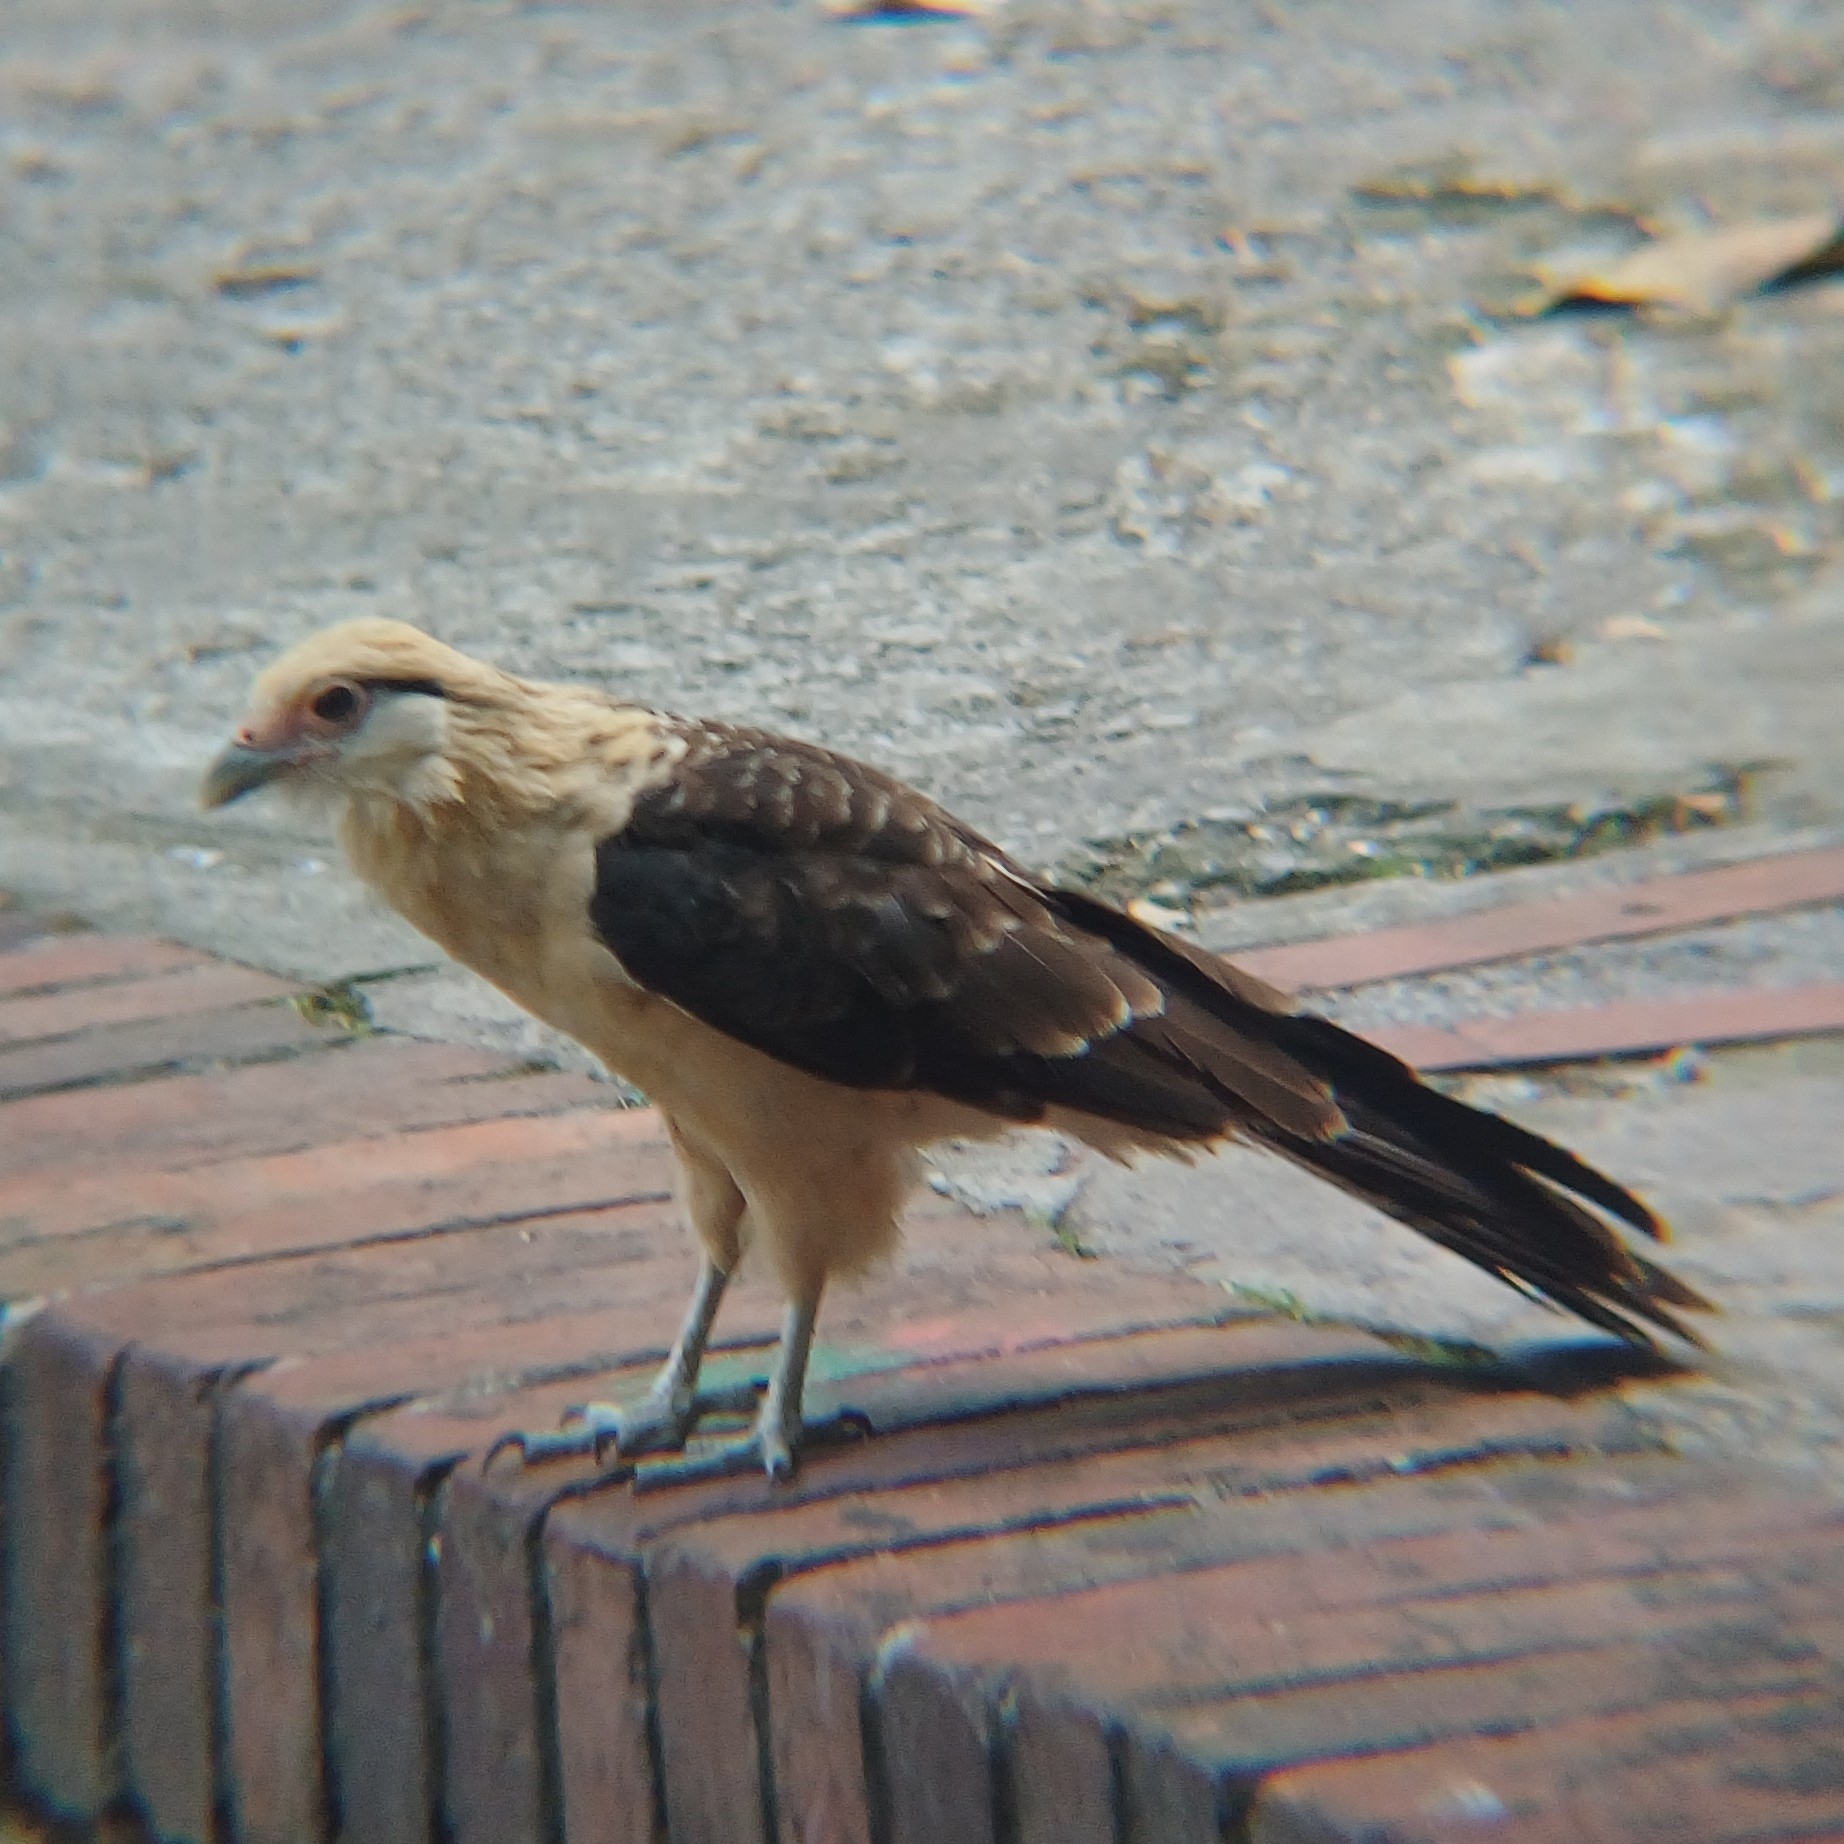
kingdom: Animalia
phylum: Chordata
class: Aves
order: Falconiformes
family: Falconidae
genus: Daptrius
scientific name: Daptrius
